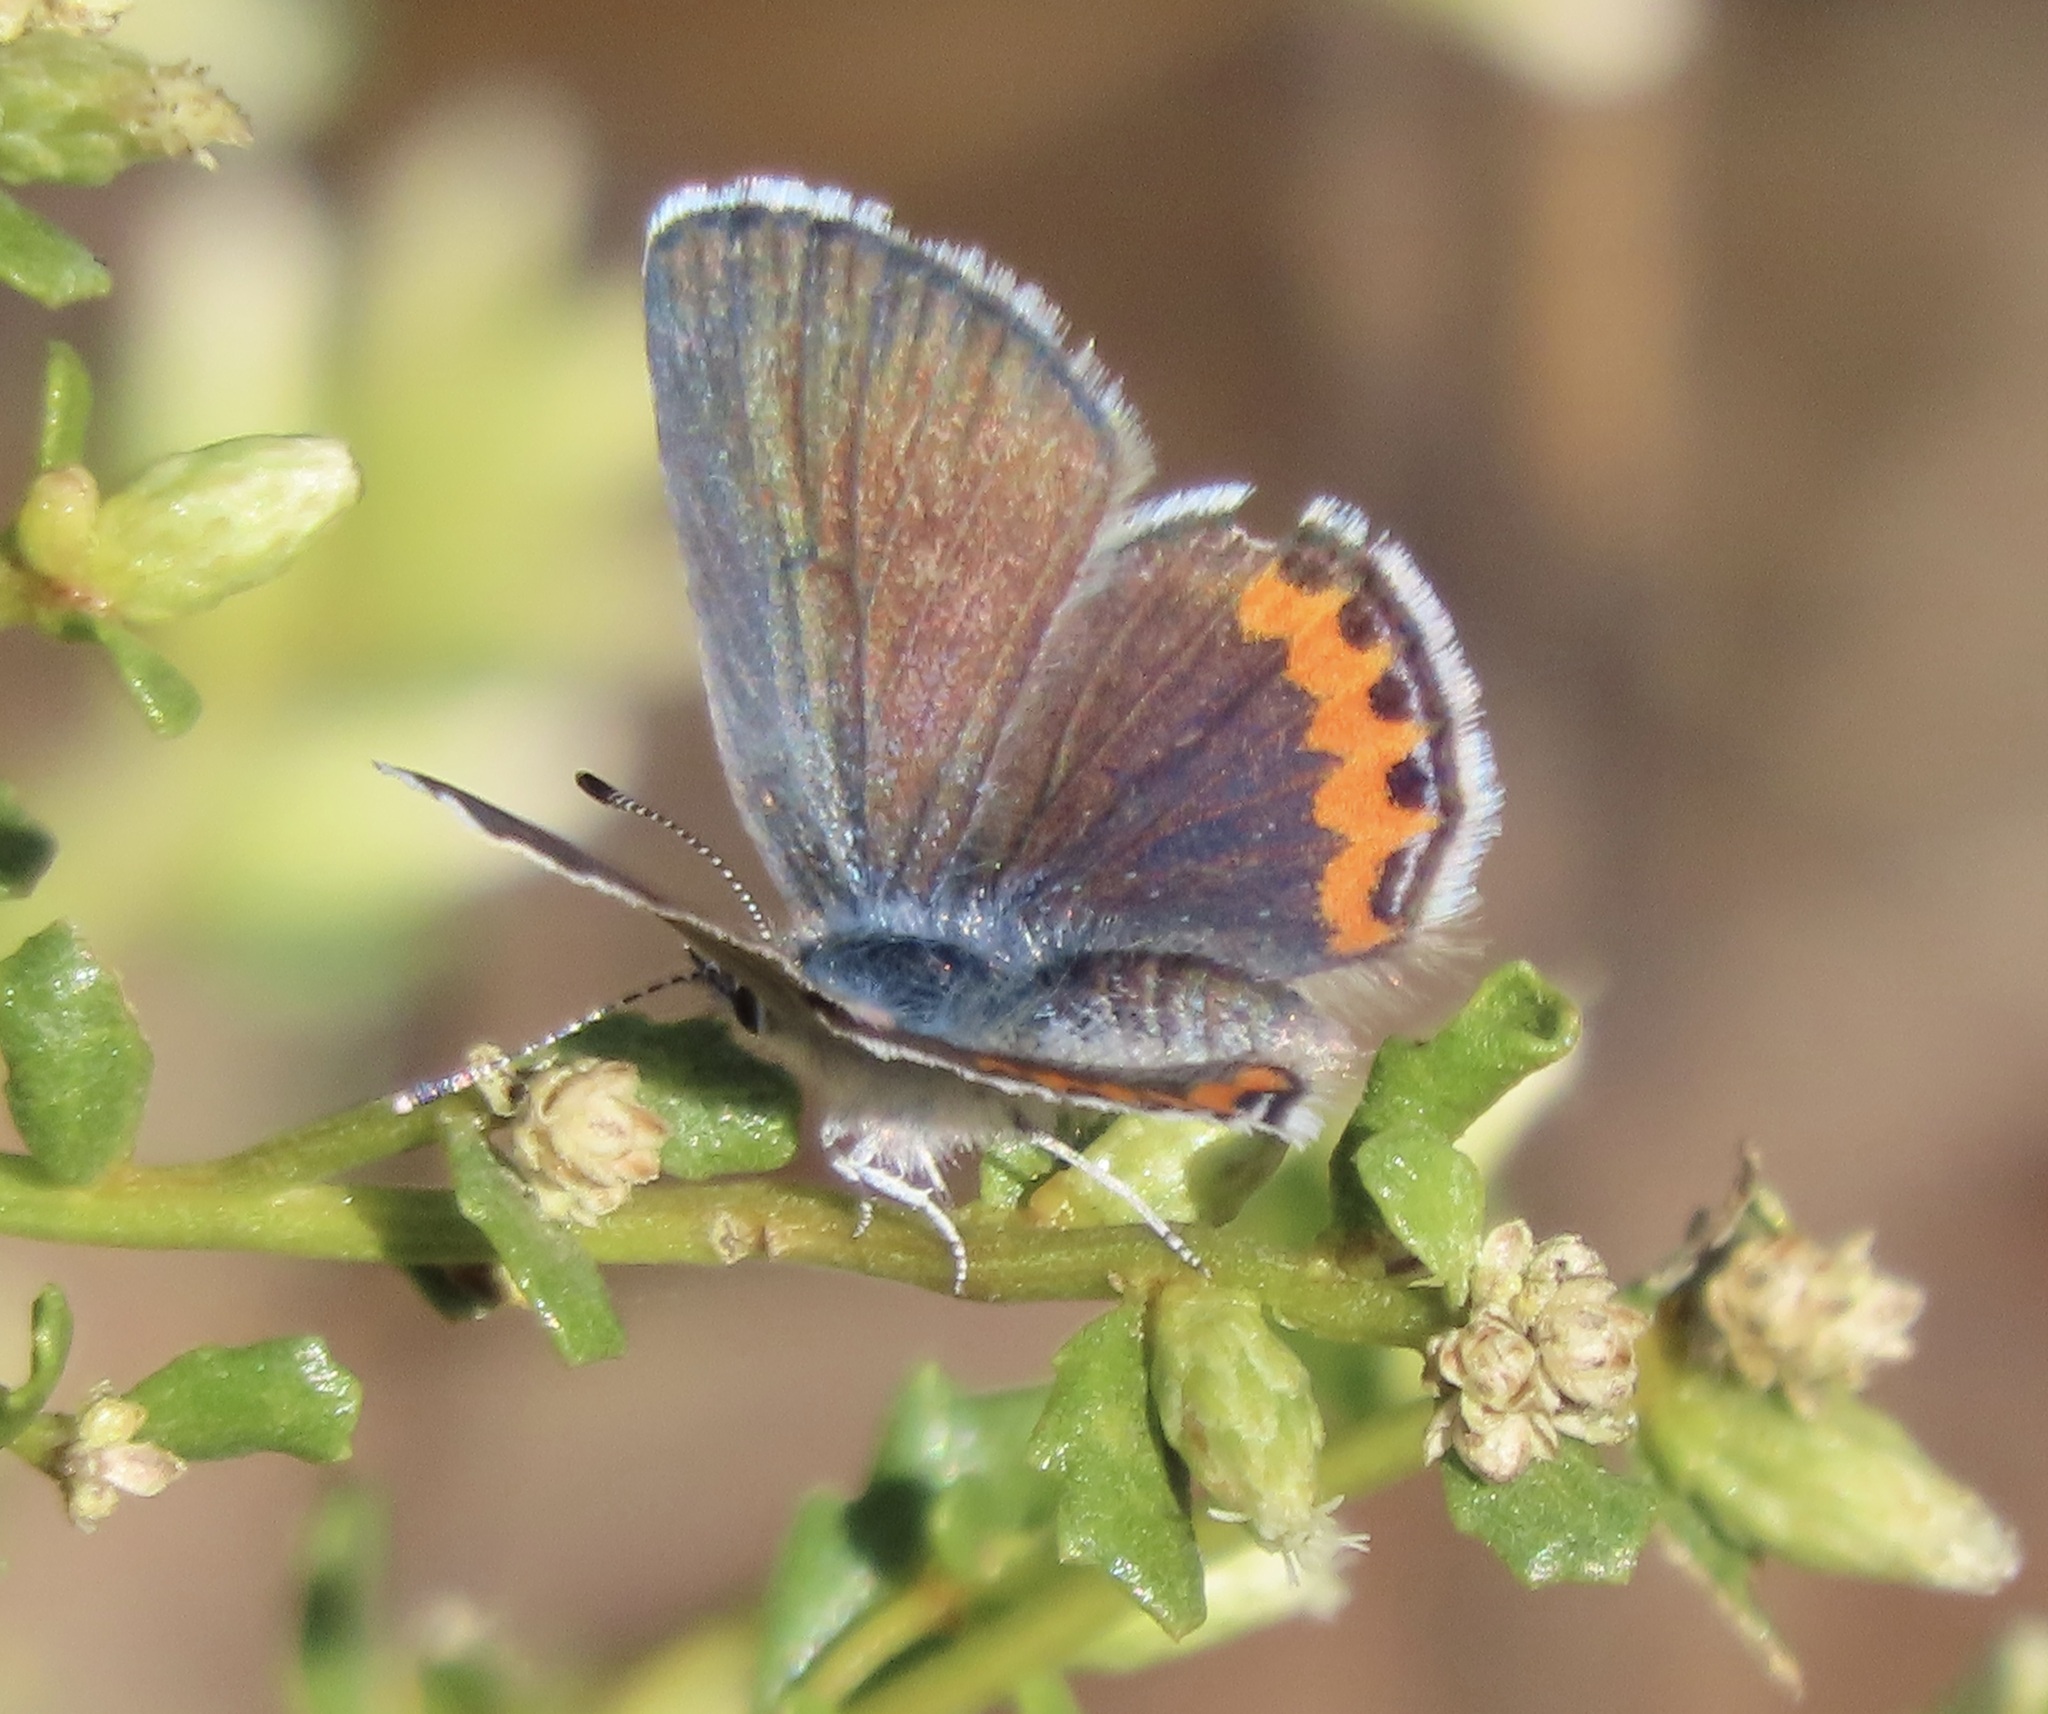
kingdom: Animalia
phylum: Arthropoda
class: Insecta
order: Lepidoptera
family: Lycaenidae
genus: Icaricia
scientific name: Icaricia acmon
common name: Acmon blue
